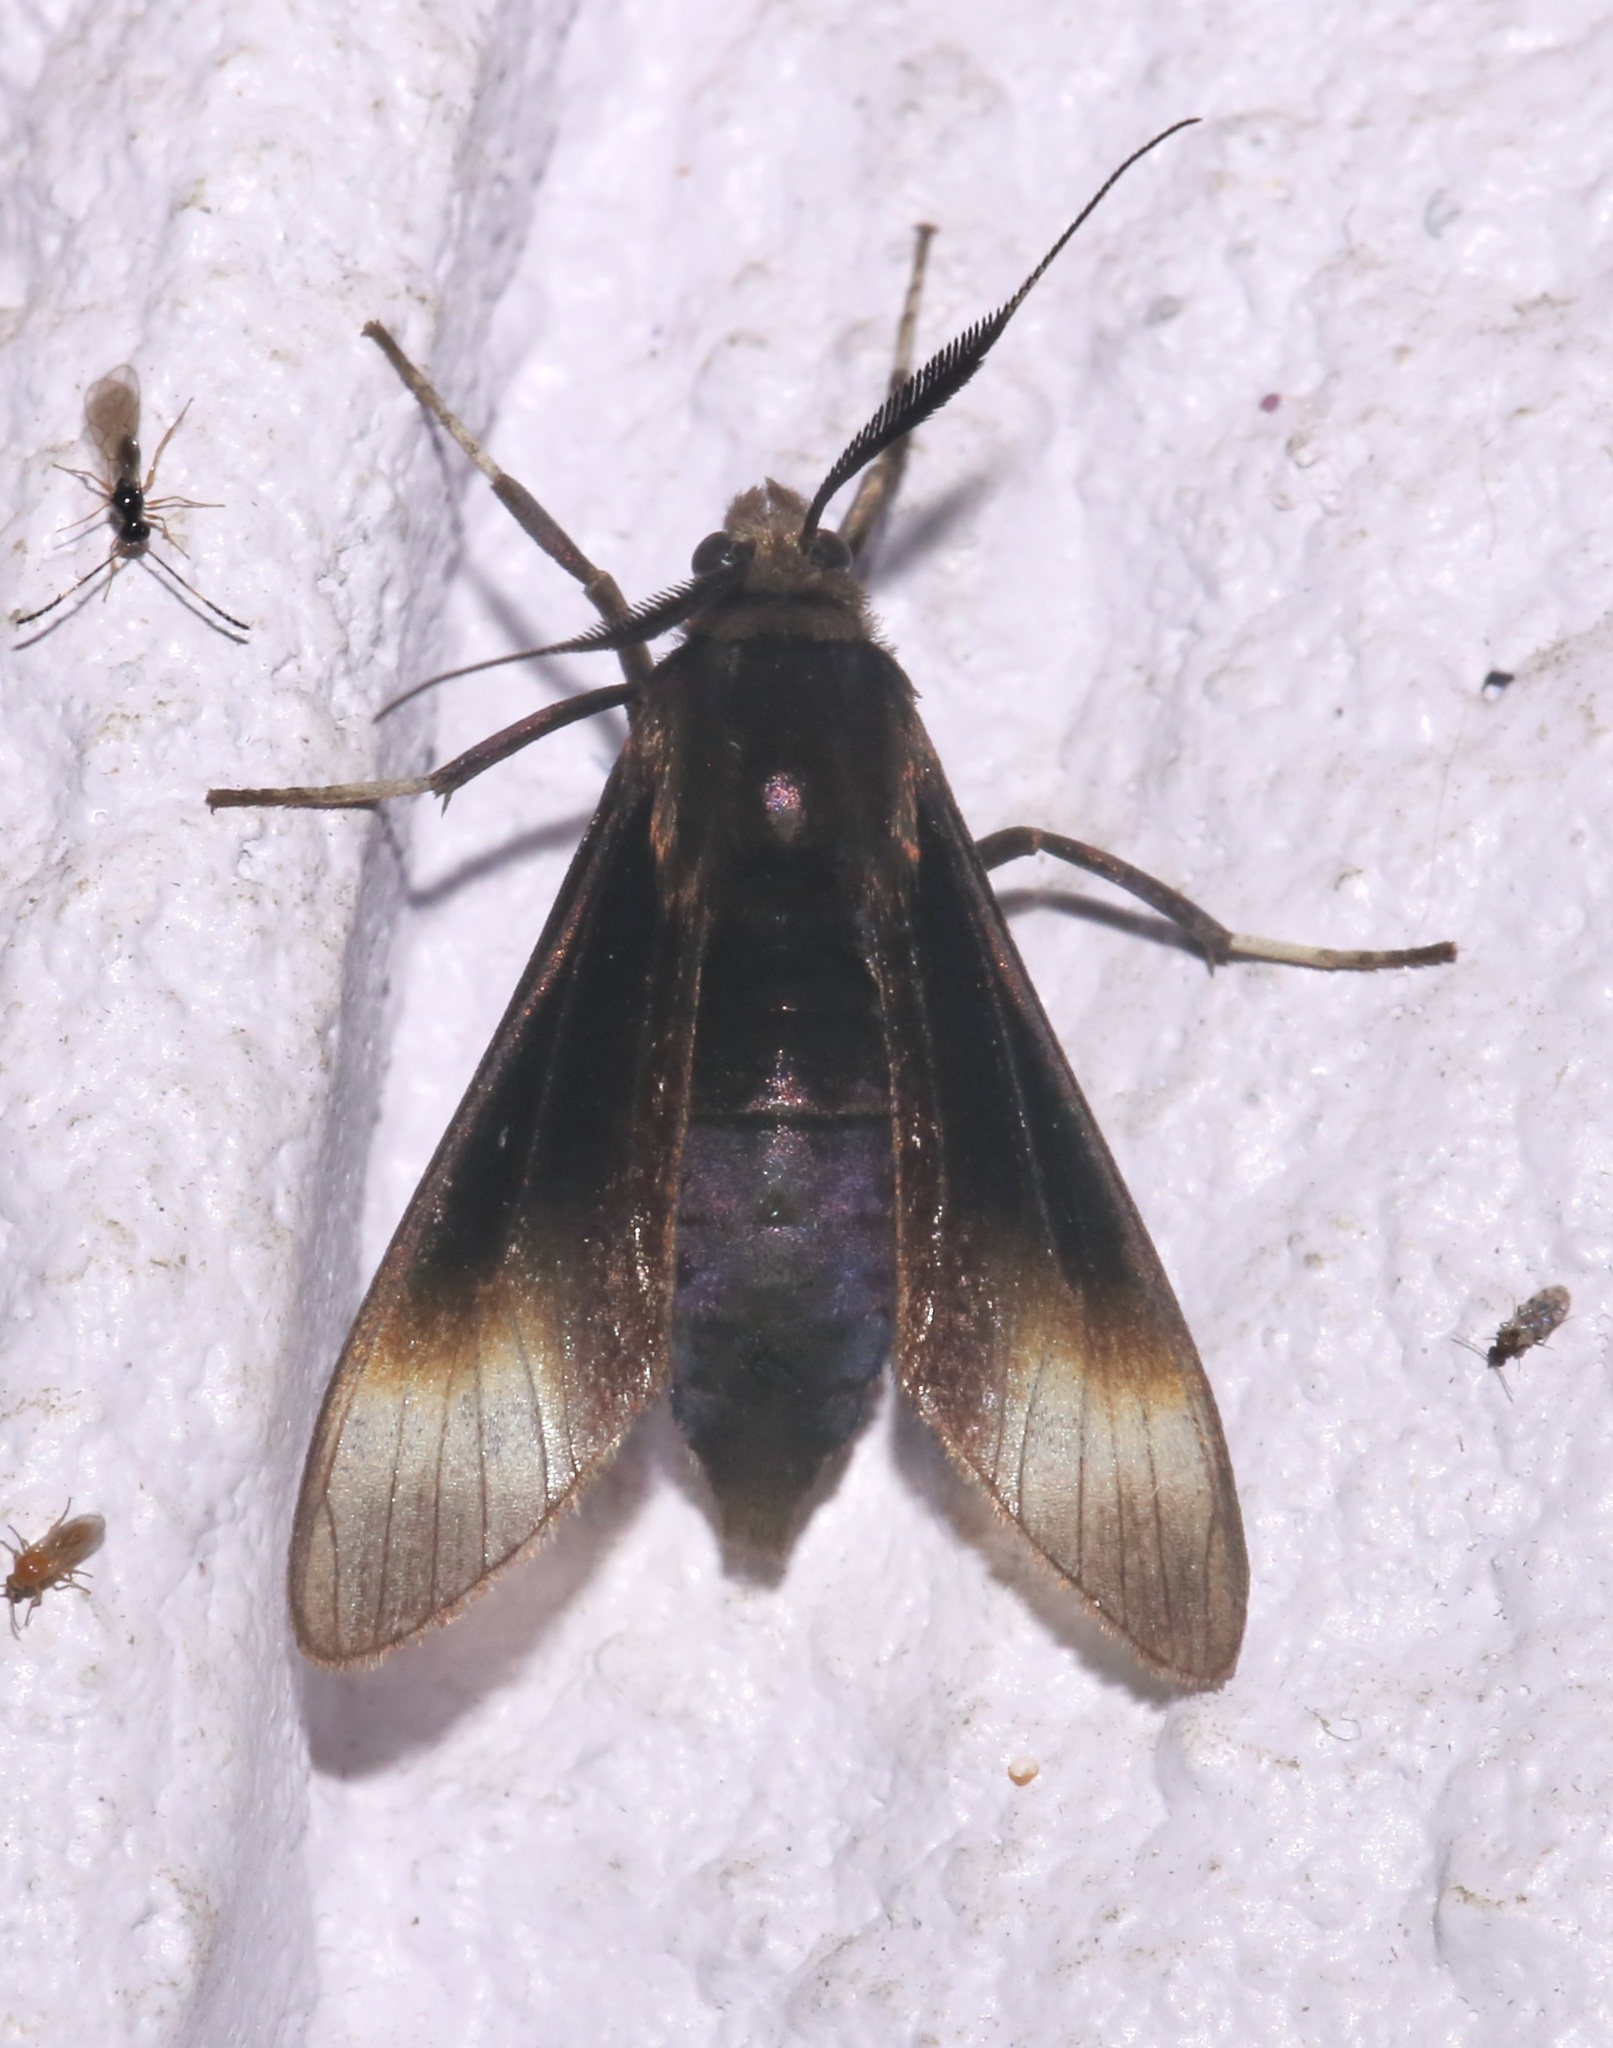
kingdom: Animalia
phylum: Arthropoda
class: Insecta
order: Lepidoptera
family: Erebidae
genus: Anycles
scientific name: Anycles anthracina
